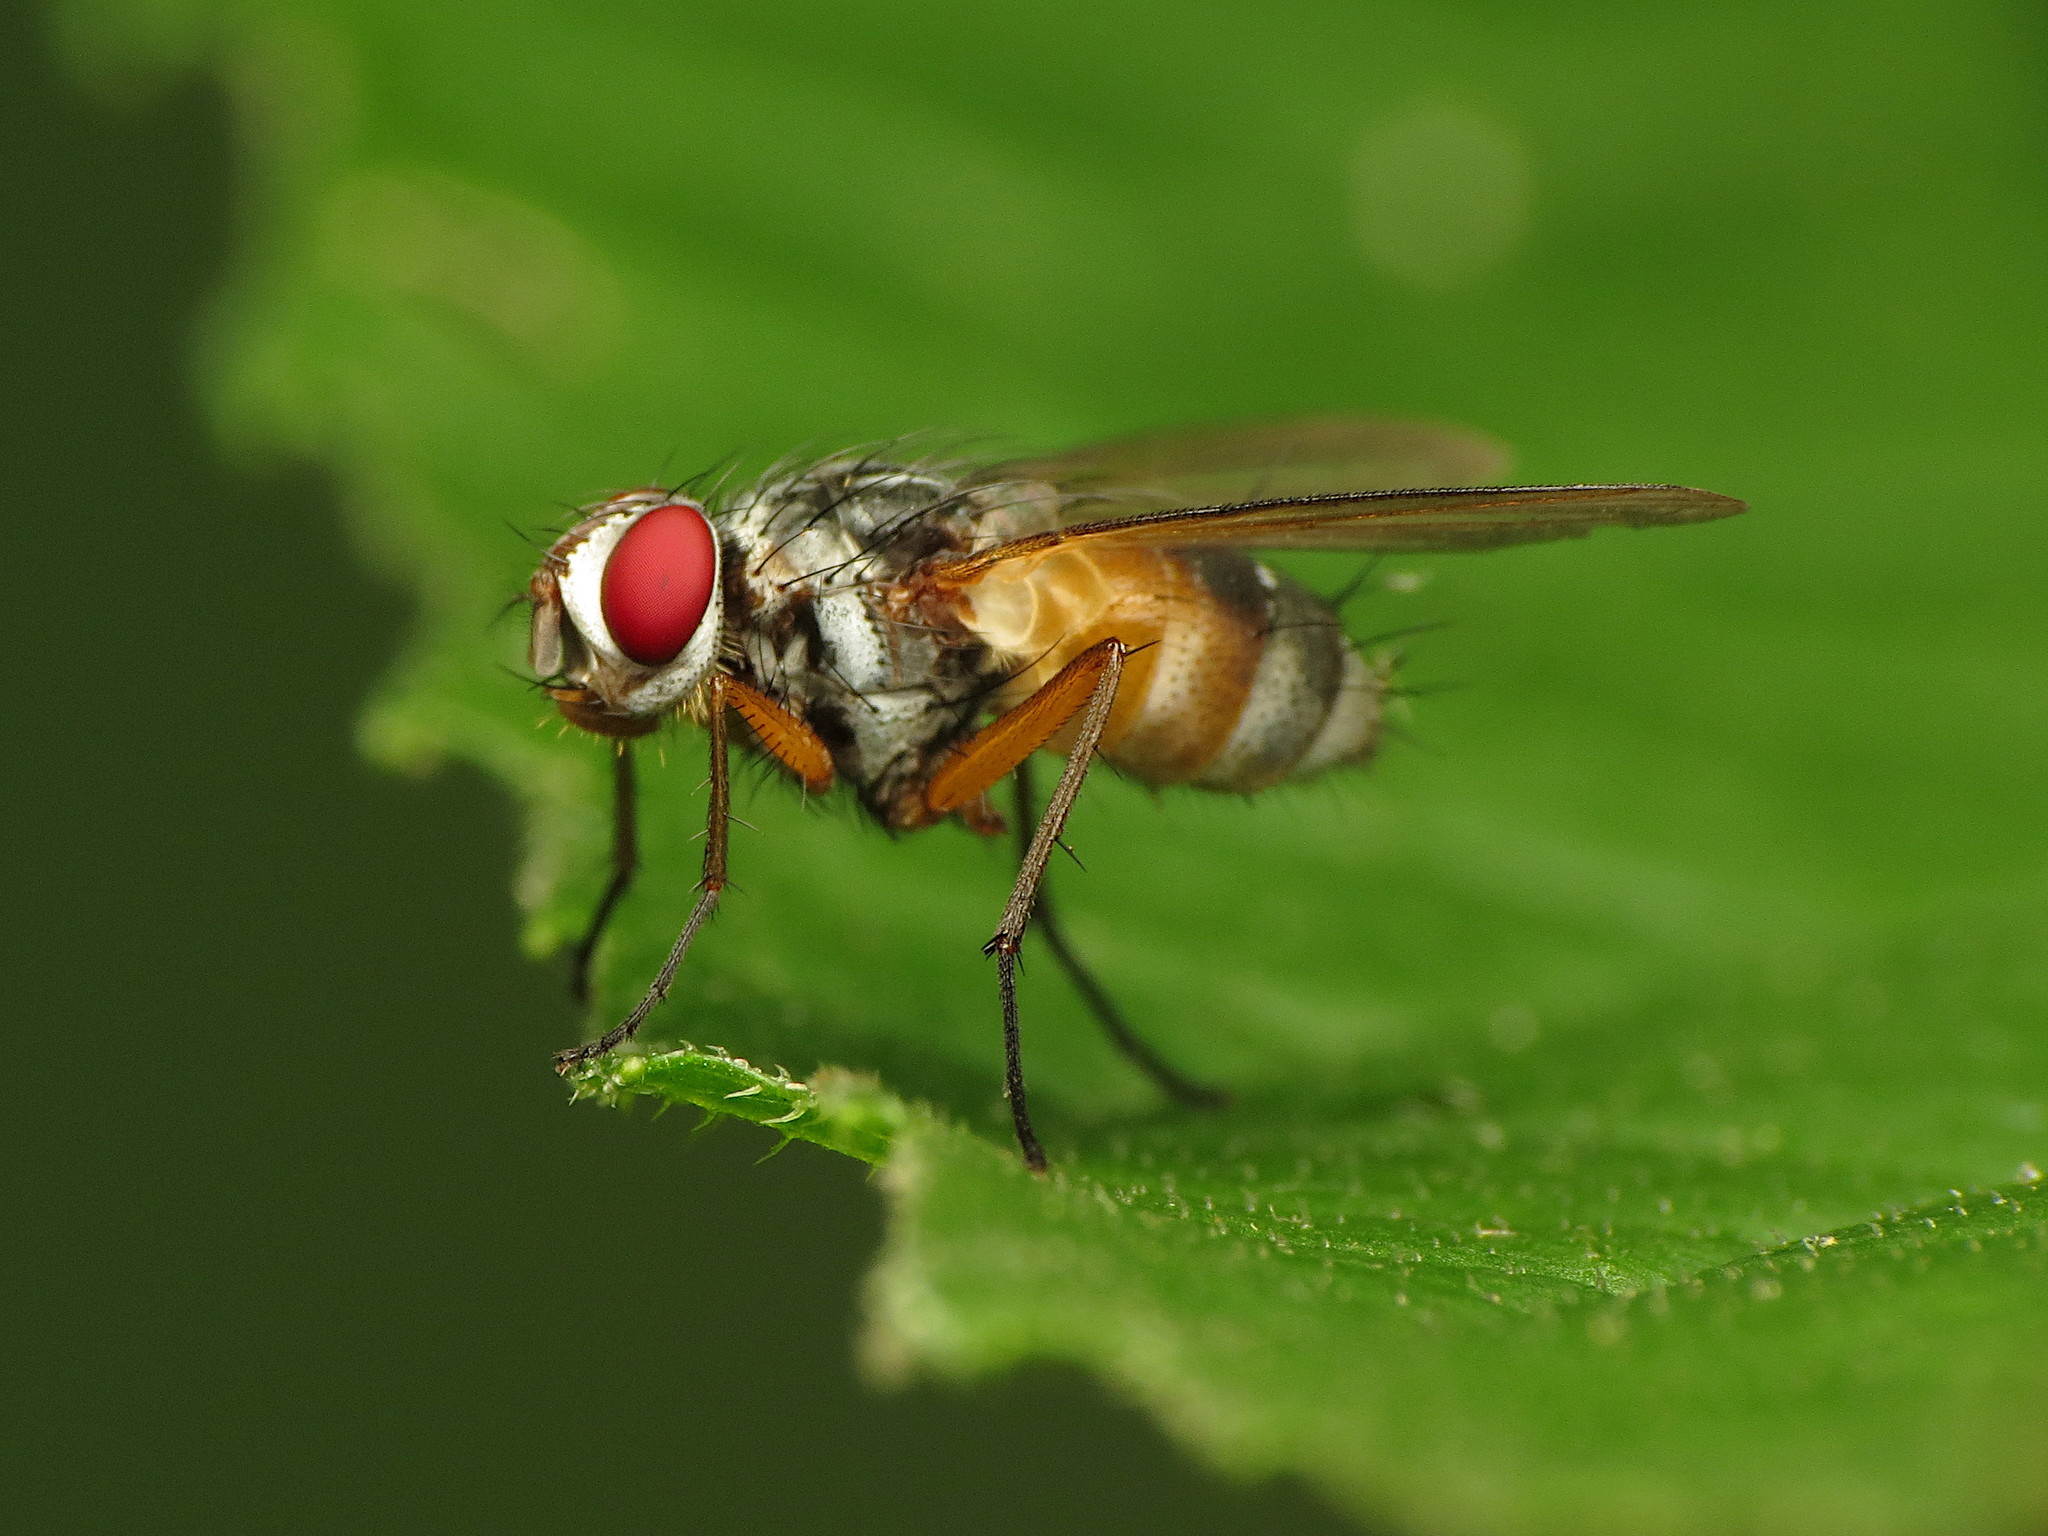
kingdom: Animalia
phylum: Arthropoda
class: Insecta
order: Diptera
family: Tachinidae
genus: Cholomyia
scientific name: Cholomyia inaequipes
